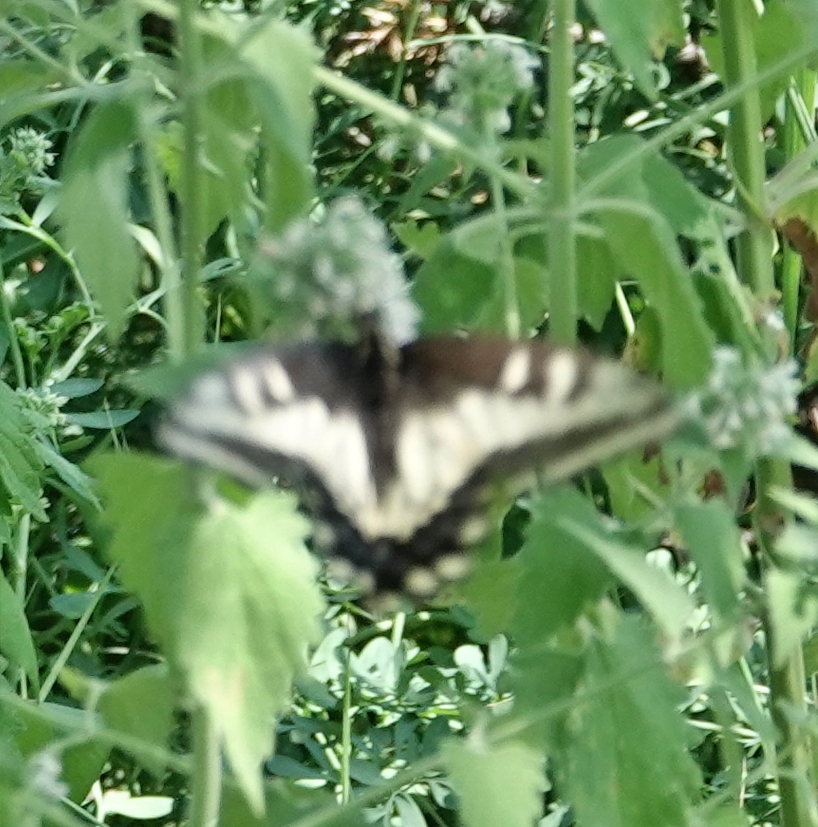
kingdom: Animalia
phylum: Arthropoda
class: Insecta
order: Lepidoptera
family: Papilionidae
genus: Papilio
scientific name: Papilio zelicaon
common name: Anise swallowtail
